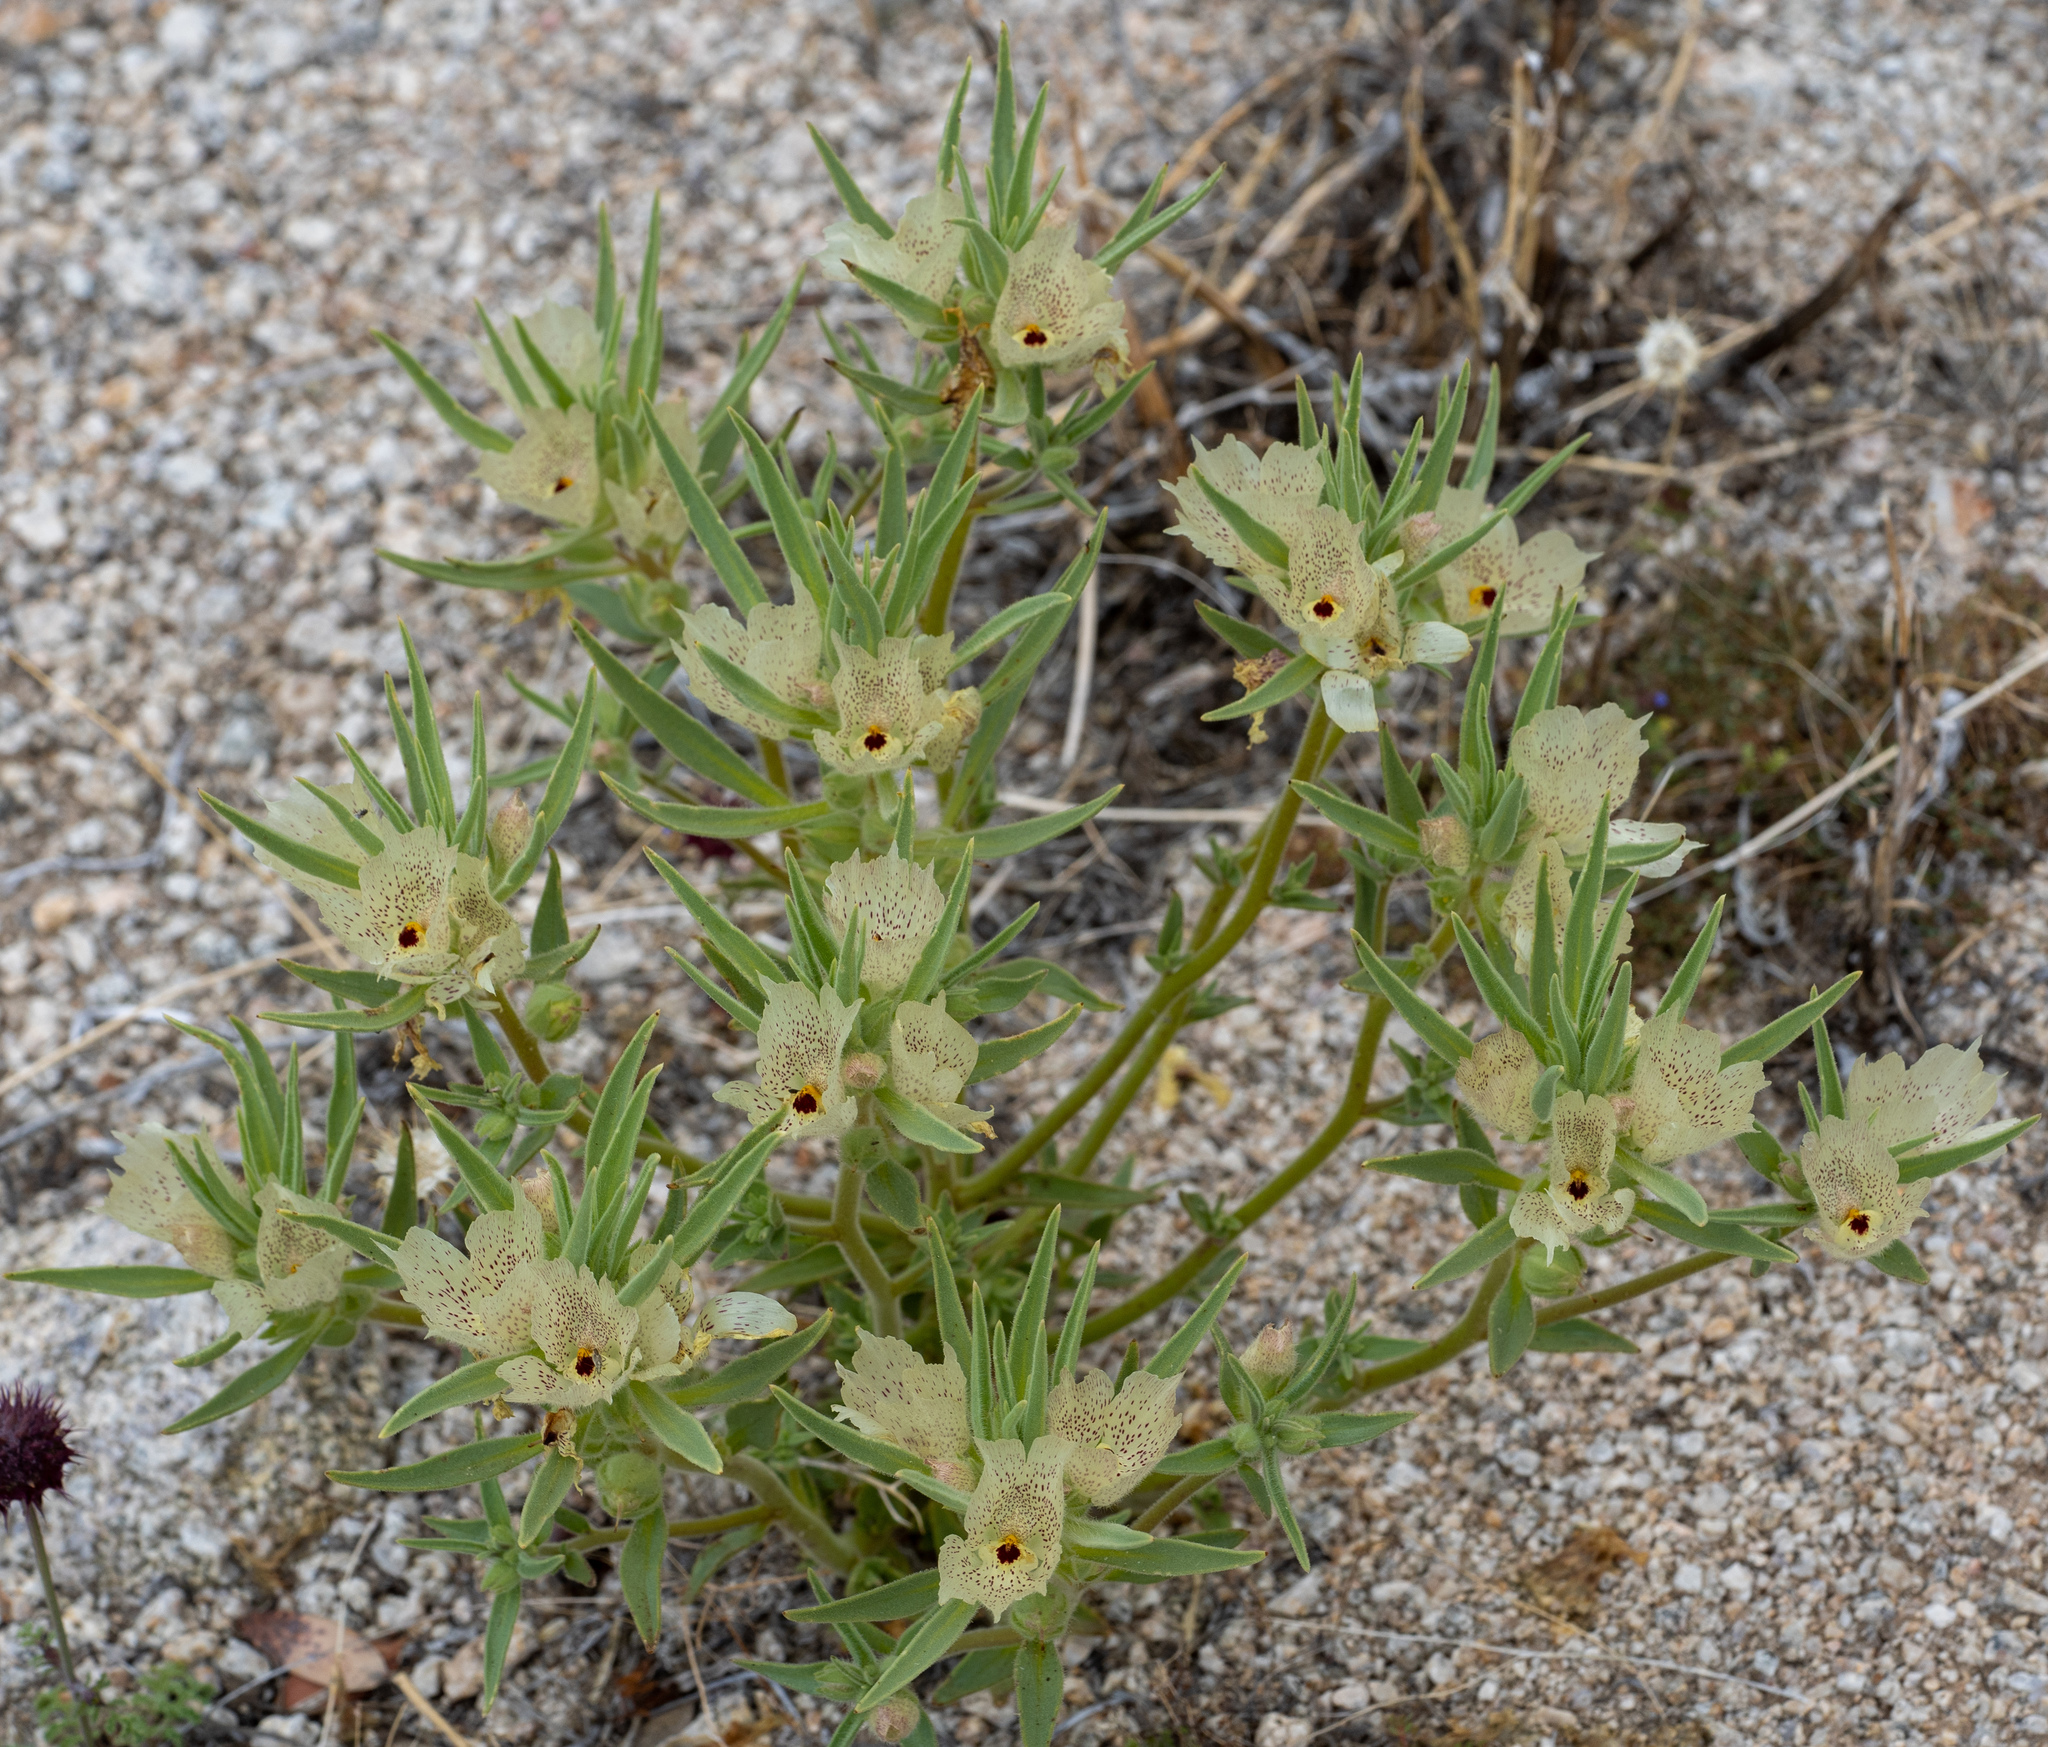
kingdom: Plantae
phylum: Tracheophyta
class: Magnoliopsida
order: Lamiales
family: Plantaginaceae
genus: Mohavea
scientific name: Mohavea confertiflora
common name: Ghost flower
